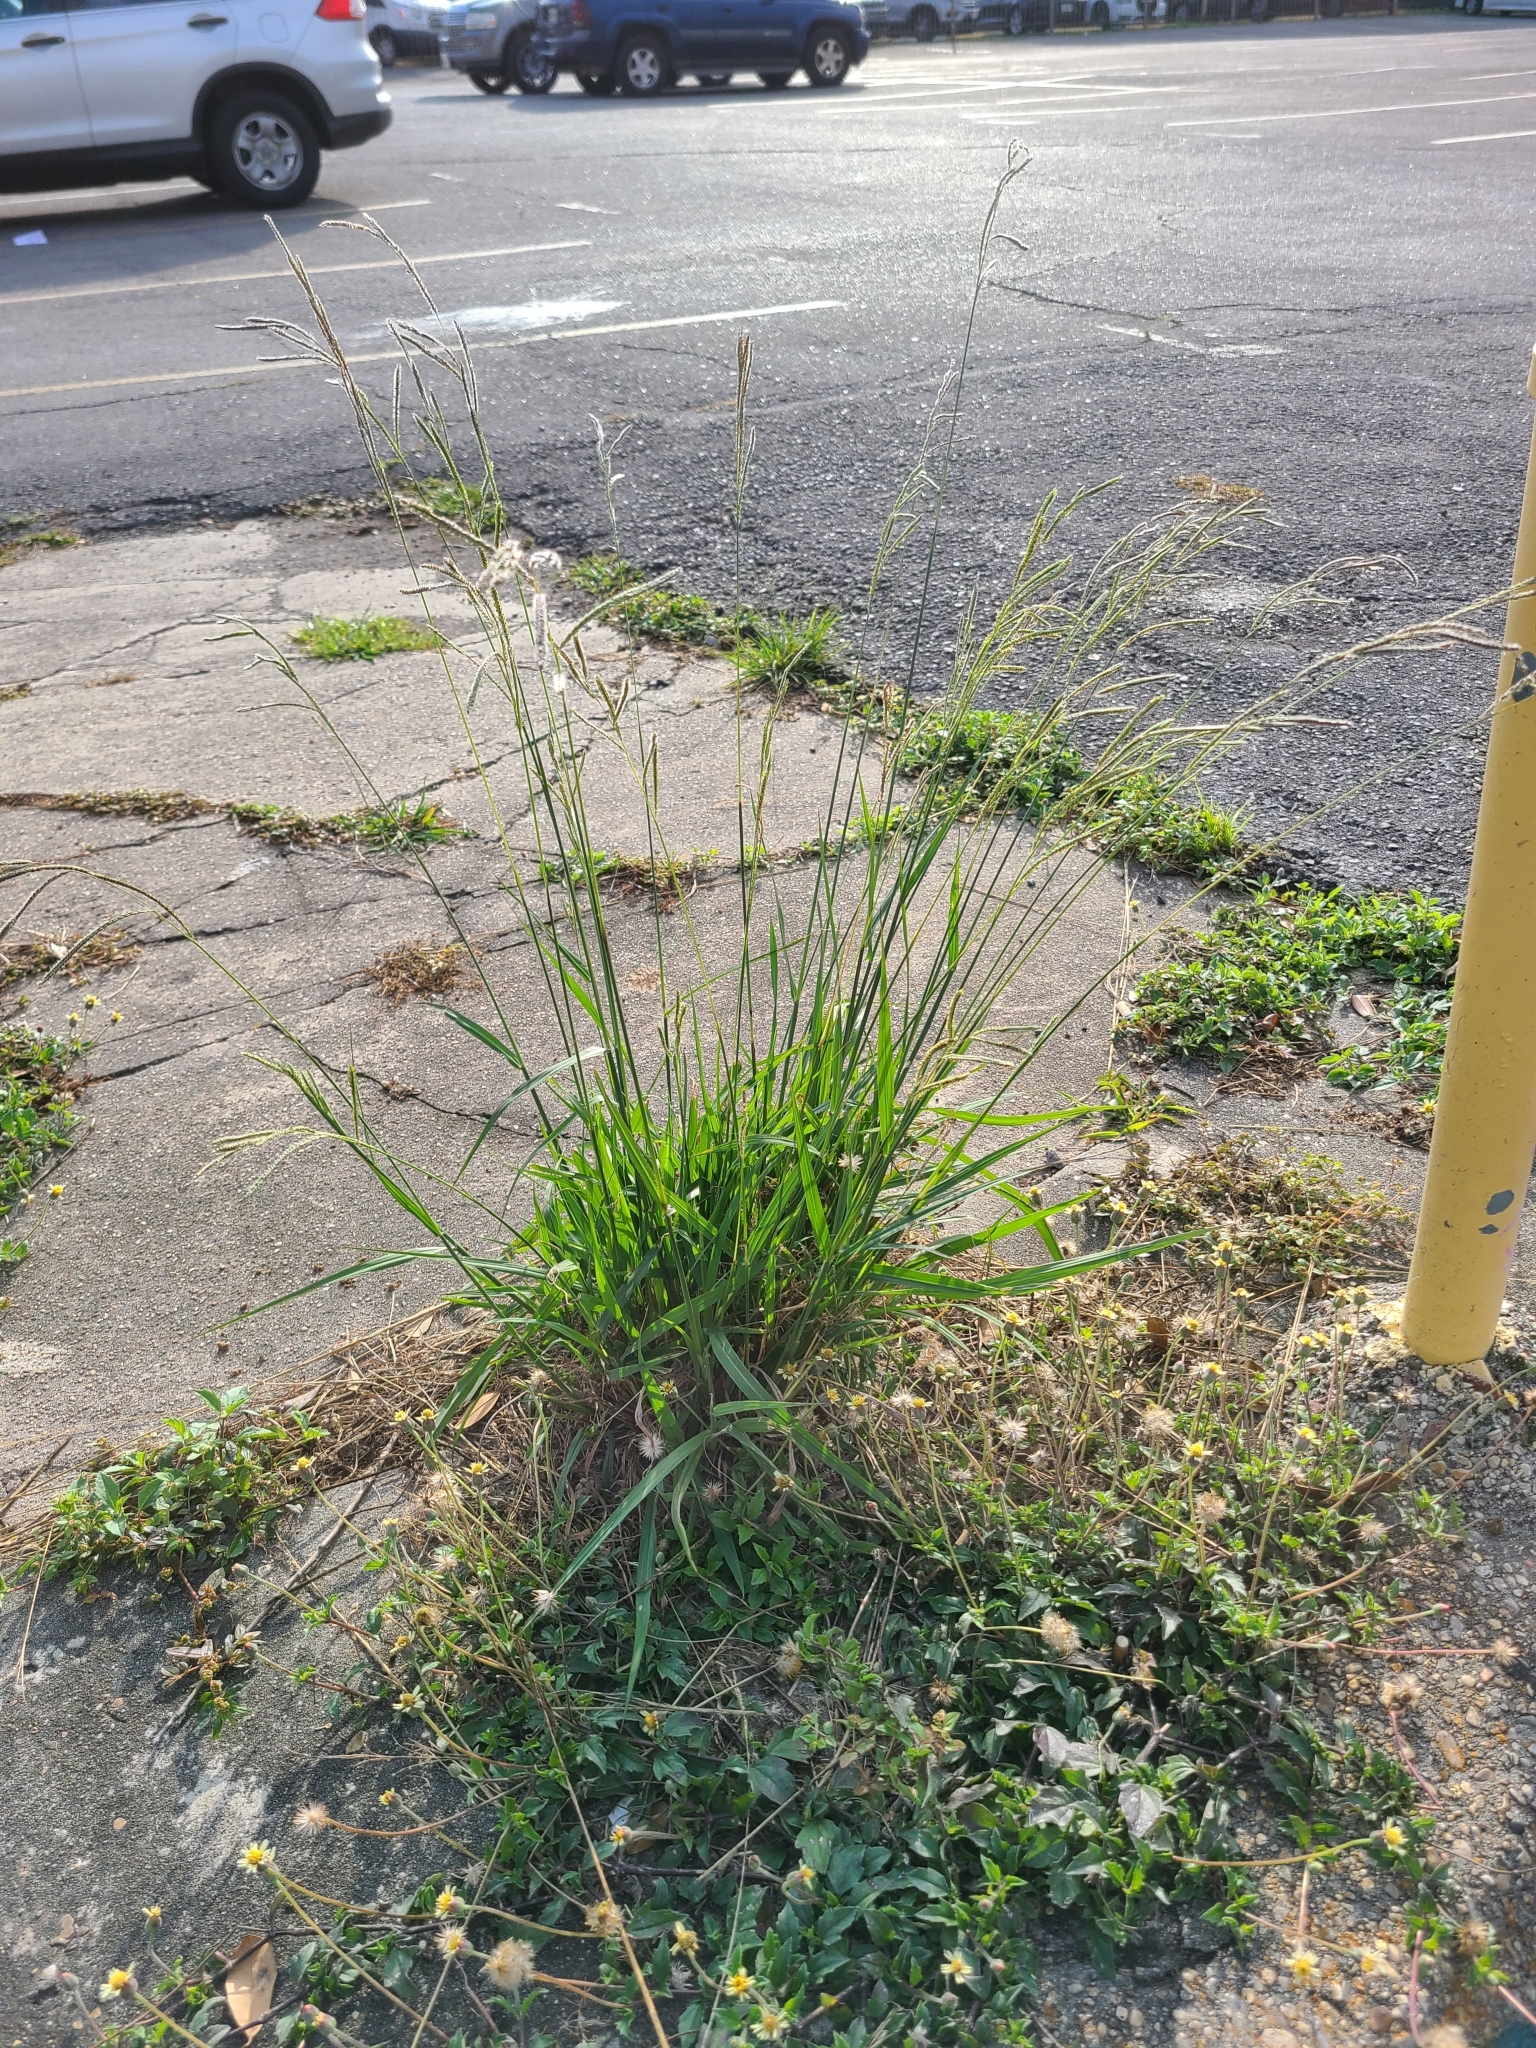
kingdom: Plantae
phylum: Tracheophyta
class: Liliopsida
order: Poales
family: Poaceae
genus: Paspalum
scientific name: Paspalum urvillei
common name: Vasey's grass
